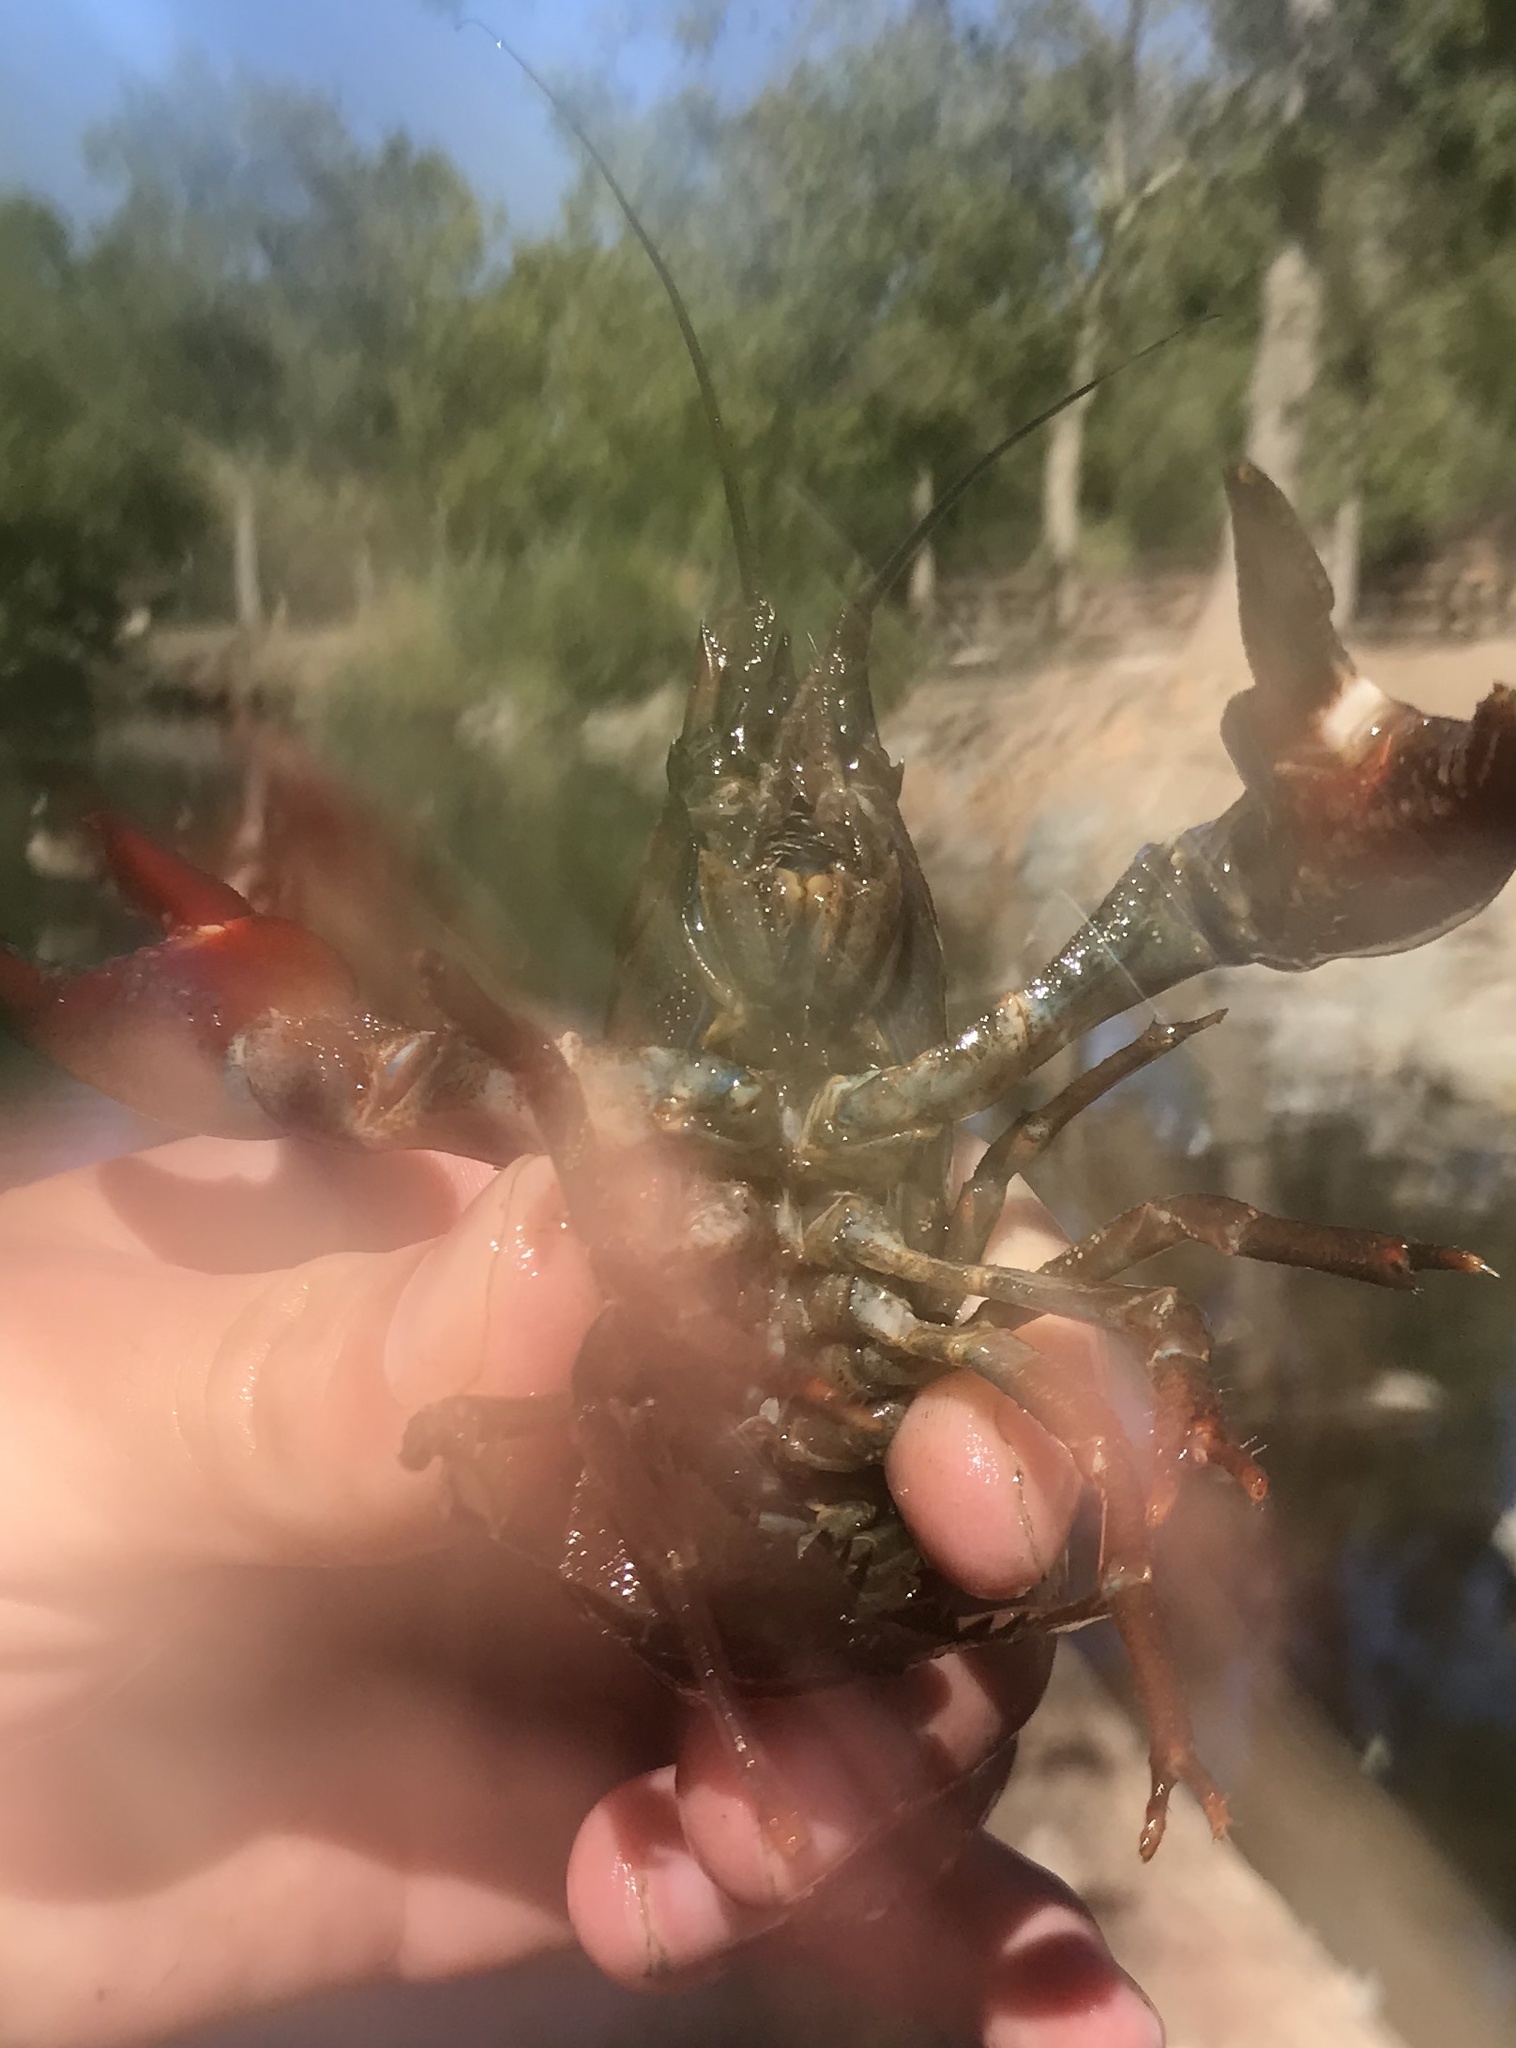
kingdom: Animalia
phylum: Arthropoda
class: Malacostraca
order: Decapoda
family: Astacidae
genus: Pacifastacus
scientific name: Pacifastacus leniusculus
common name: Signal crayfish
